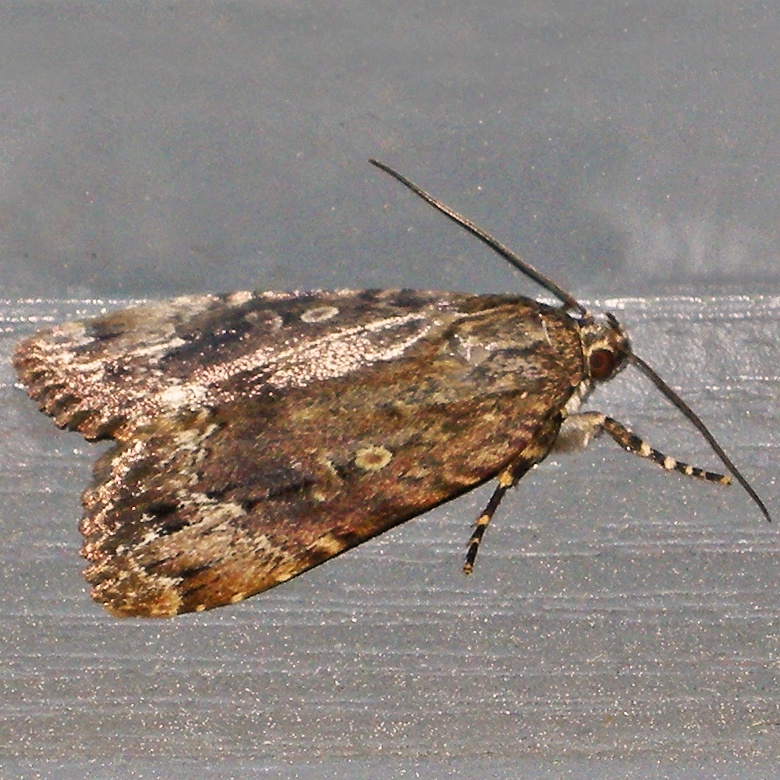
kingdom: Animalia
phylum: Arthropoda
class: Insecta
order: Lepidoptera
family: Noctuidae
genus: Amphipyra
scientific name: Amphipyra pyramidoides
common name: American copper underwing
